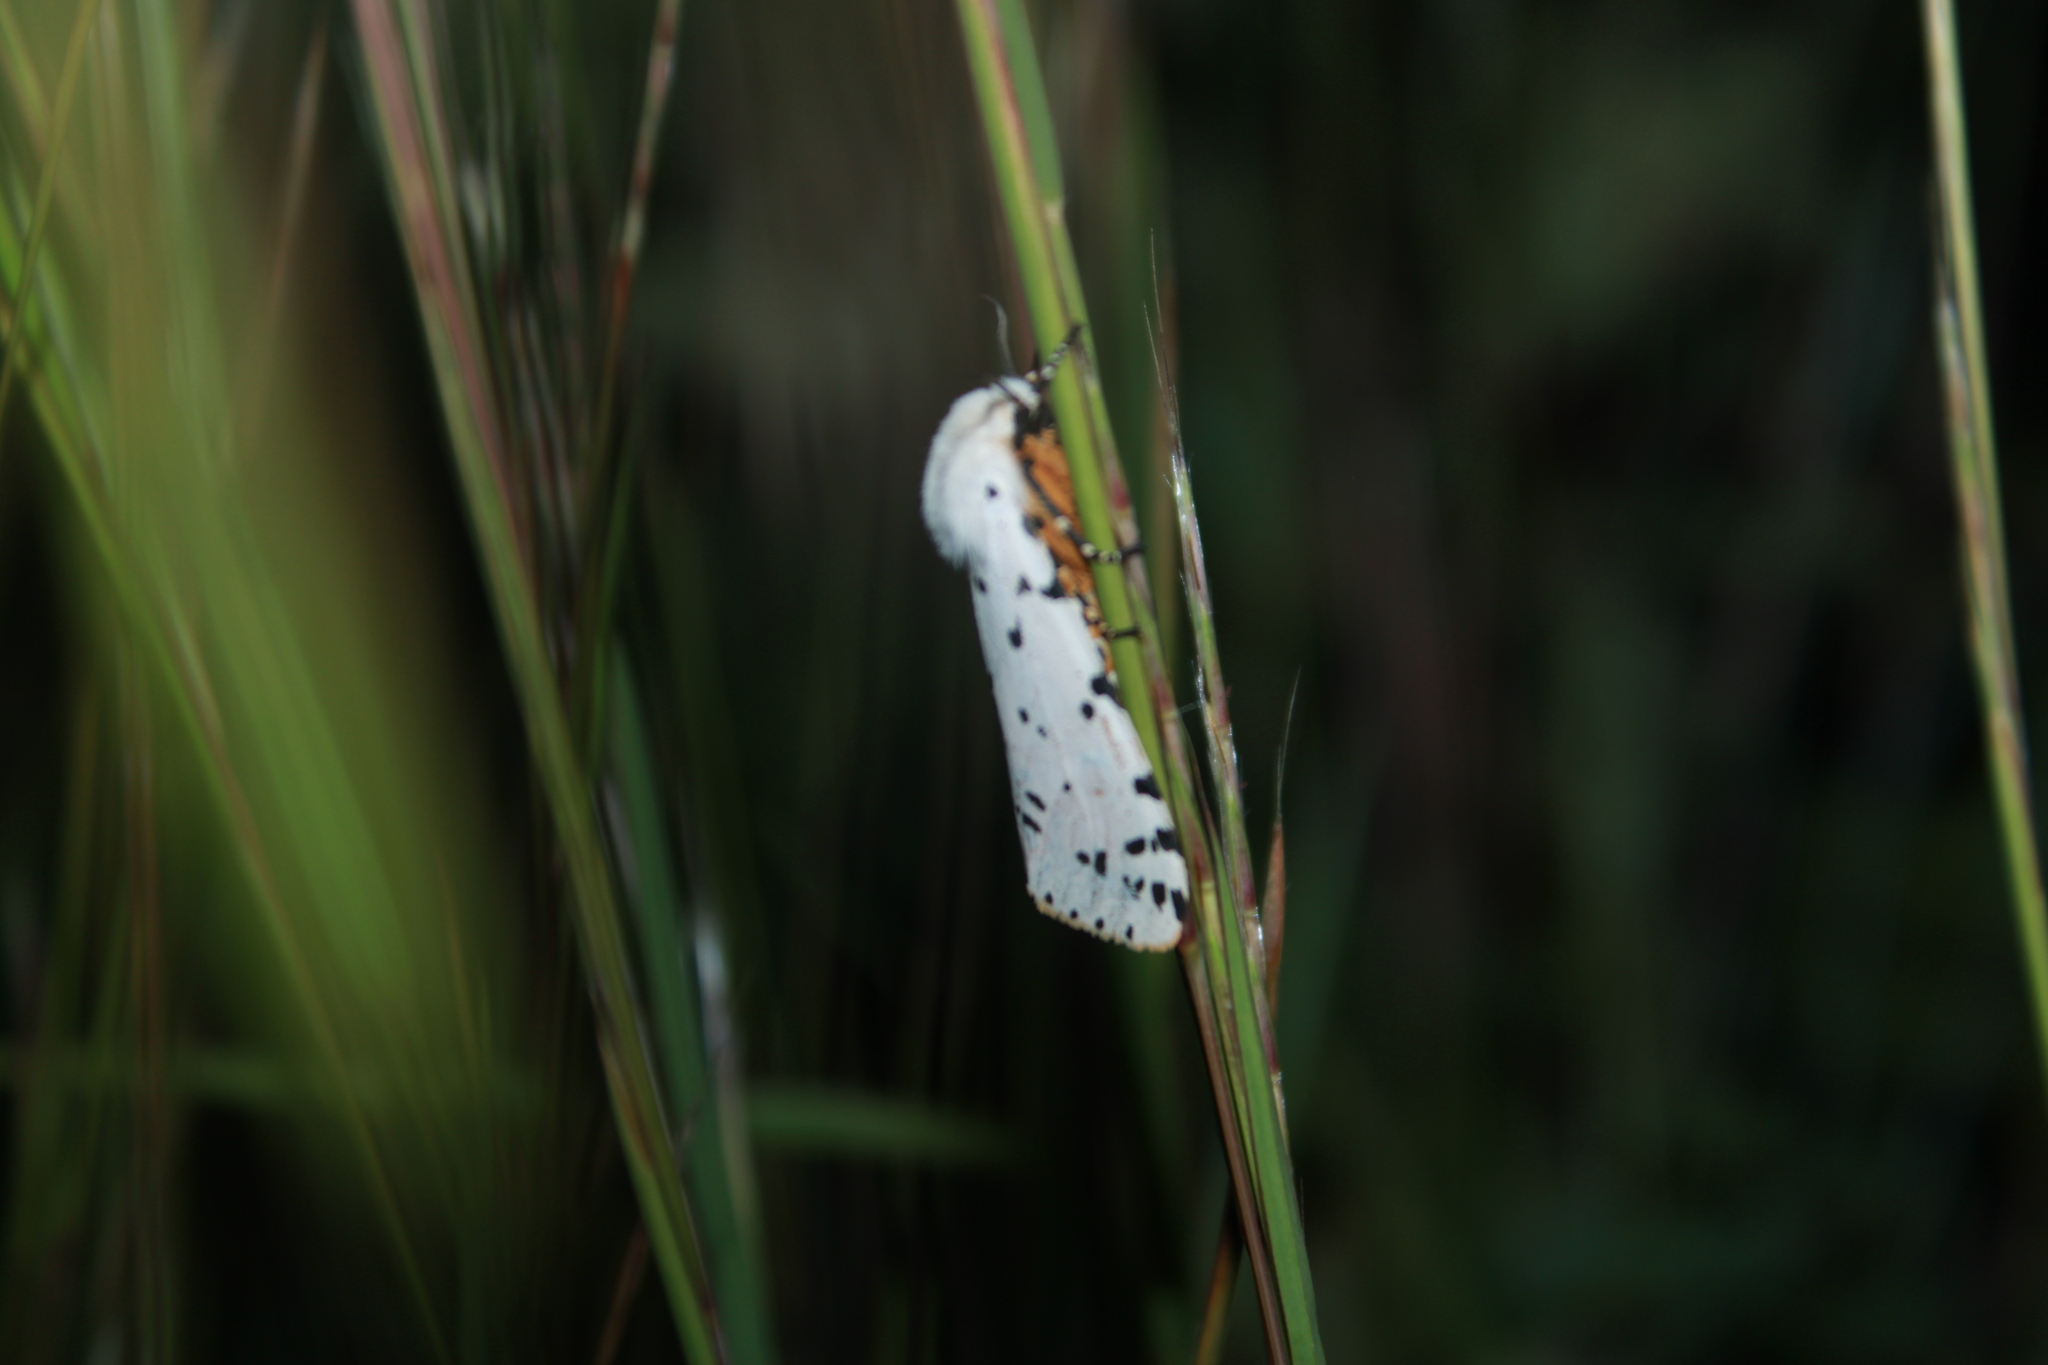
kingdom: Animalia
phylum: Arthropoda
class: Insecta
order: Lepidoptera
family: Erebidae
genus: Estigmene
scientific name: Estigmene acrea
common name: Salt marsh moth
